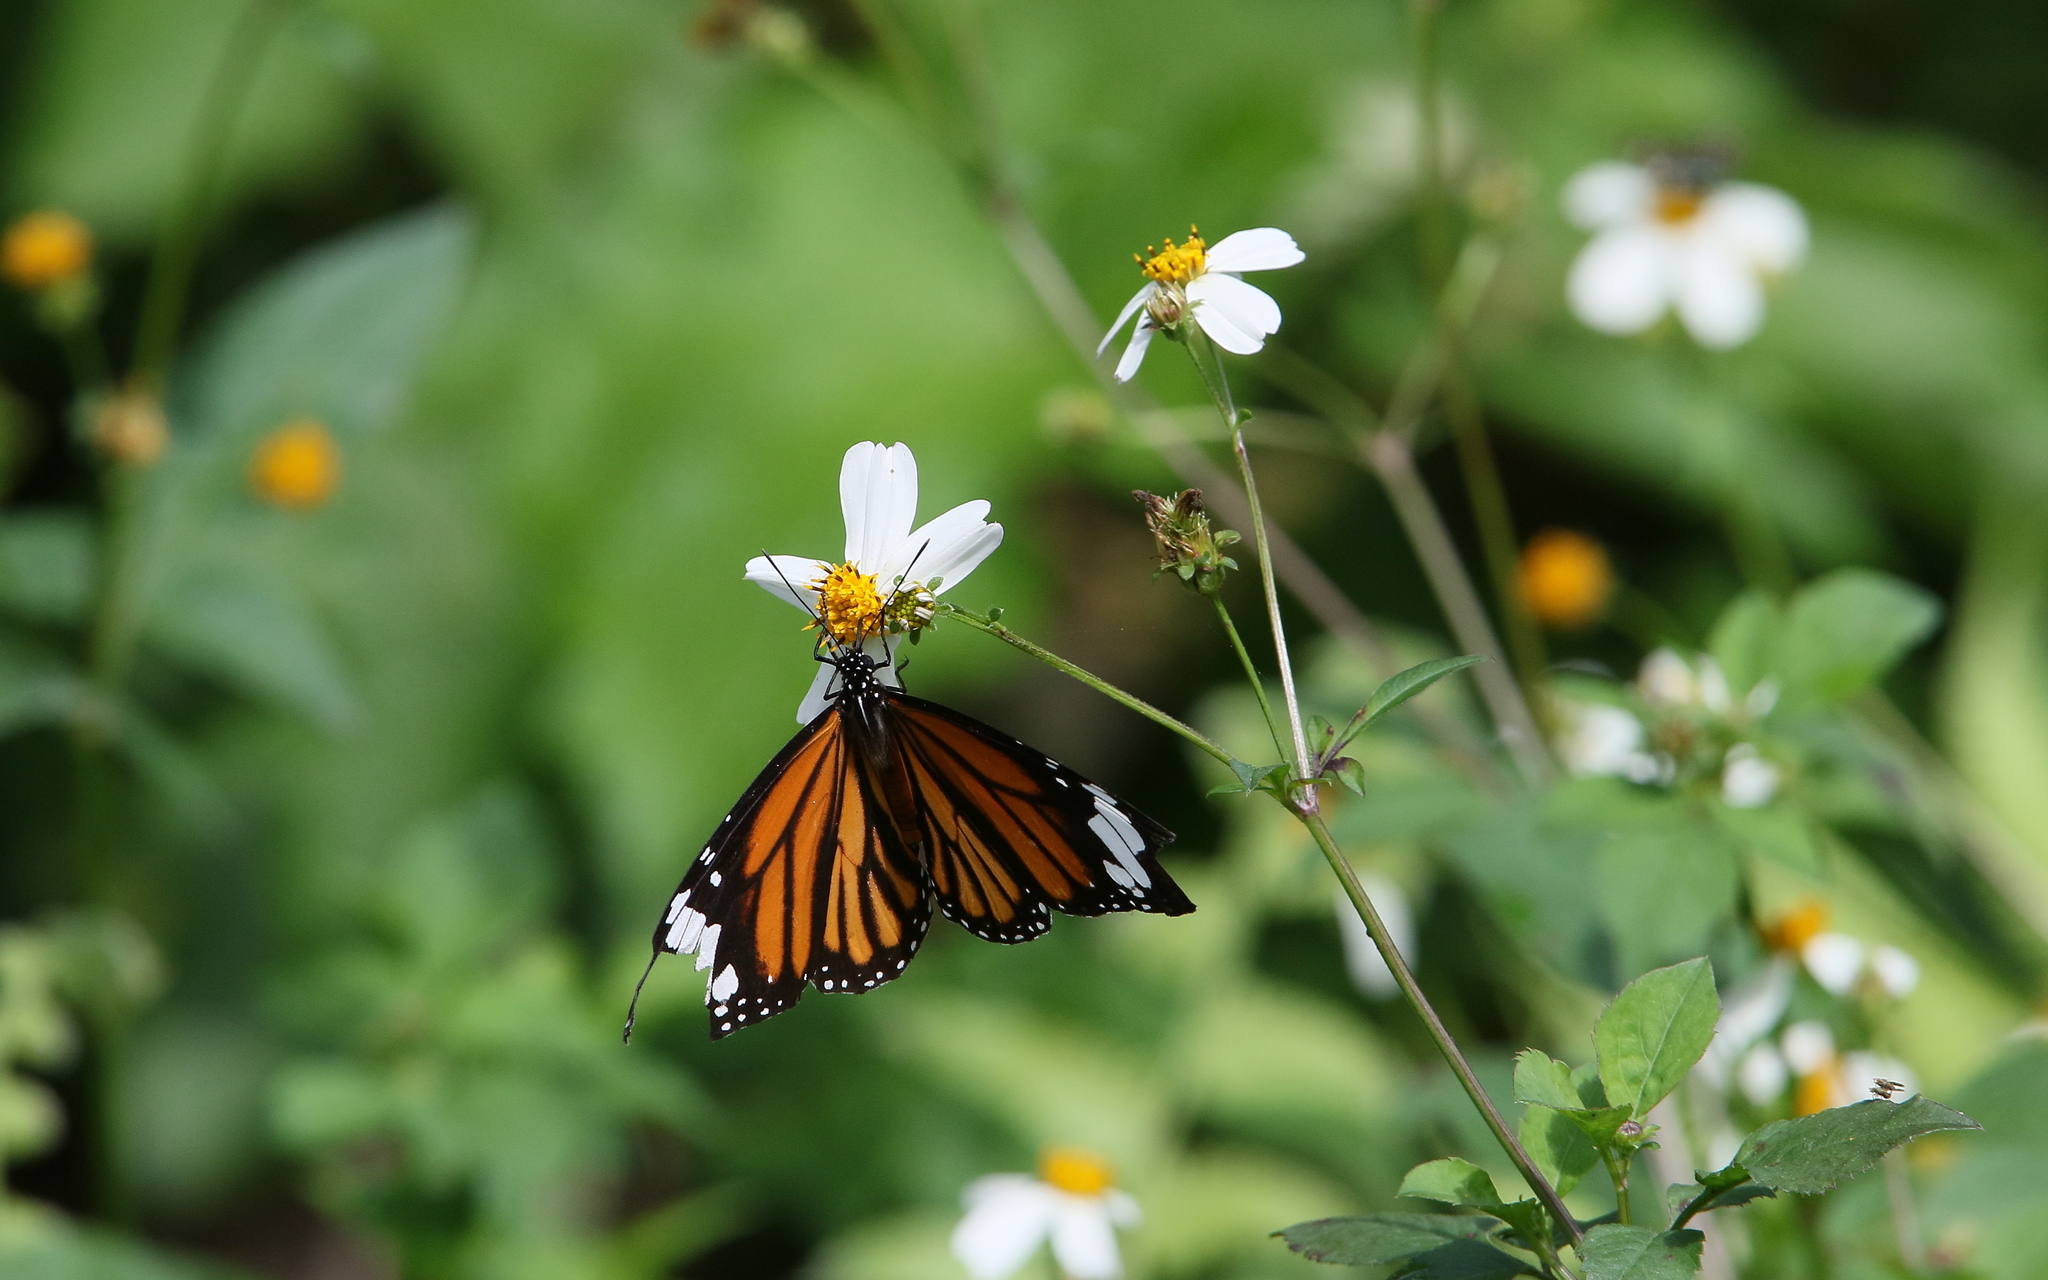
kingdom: Animalia
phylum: Arthropoda
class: Insecta
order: Lepidoptera
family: Nymphalidae
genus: Danaus
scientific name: Danaus genutia
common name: Common tiger butterfly
